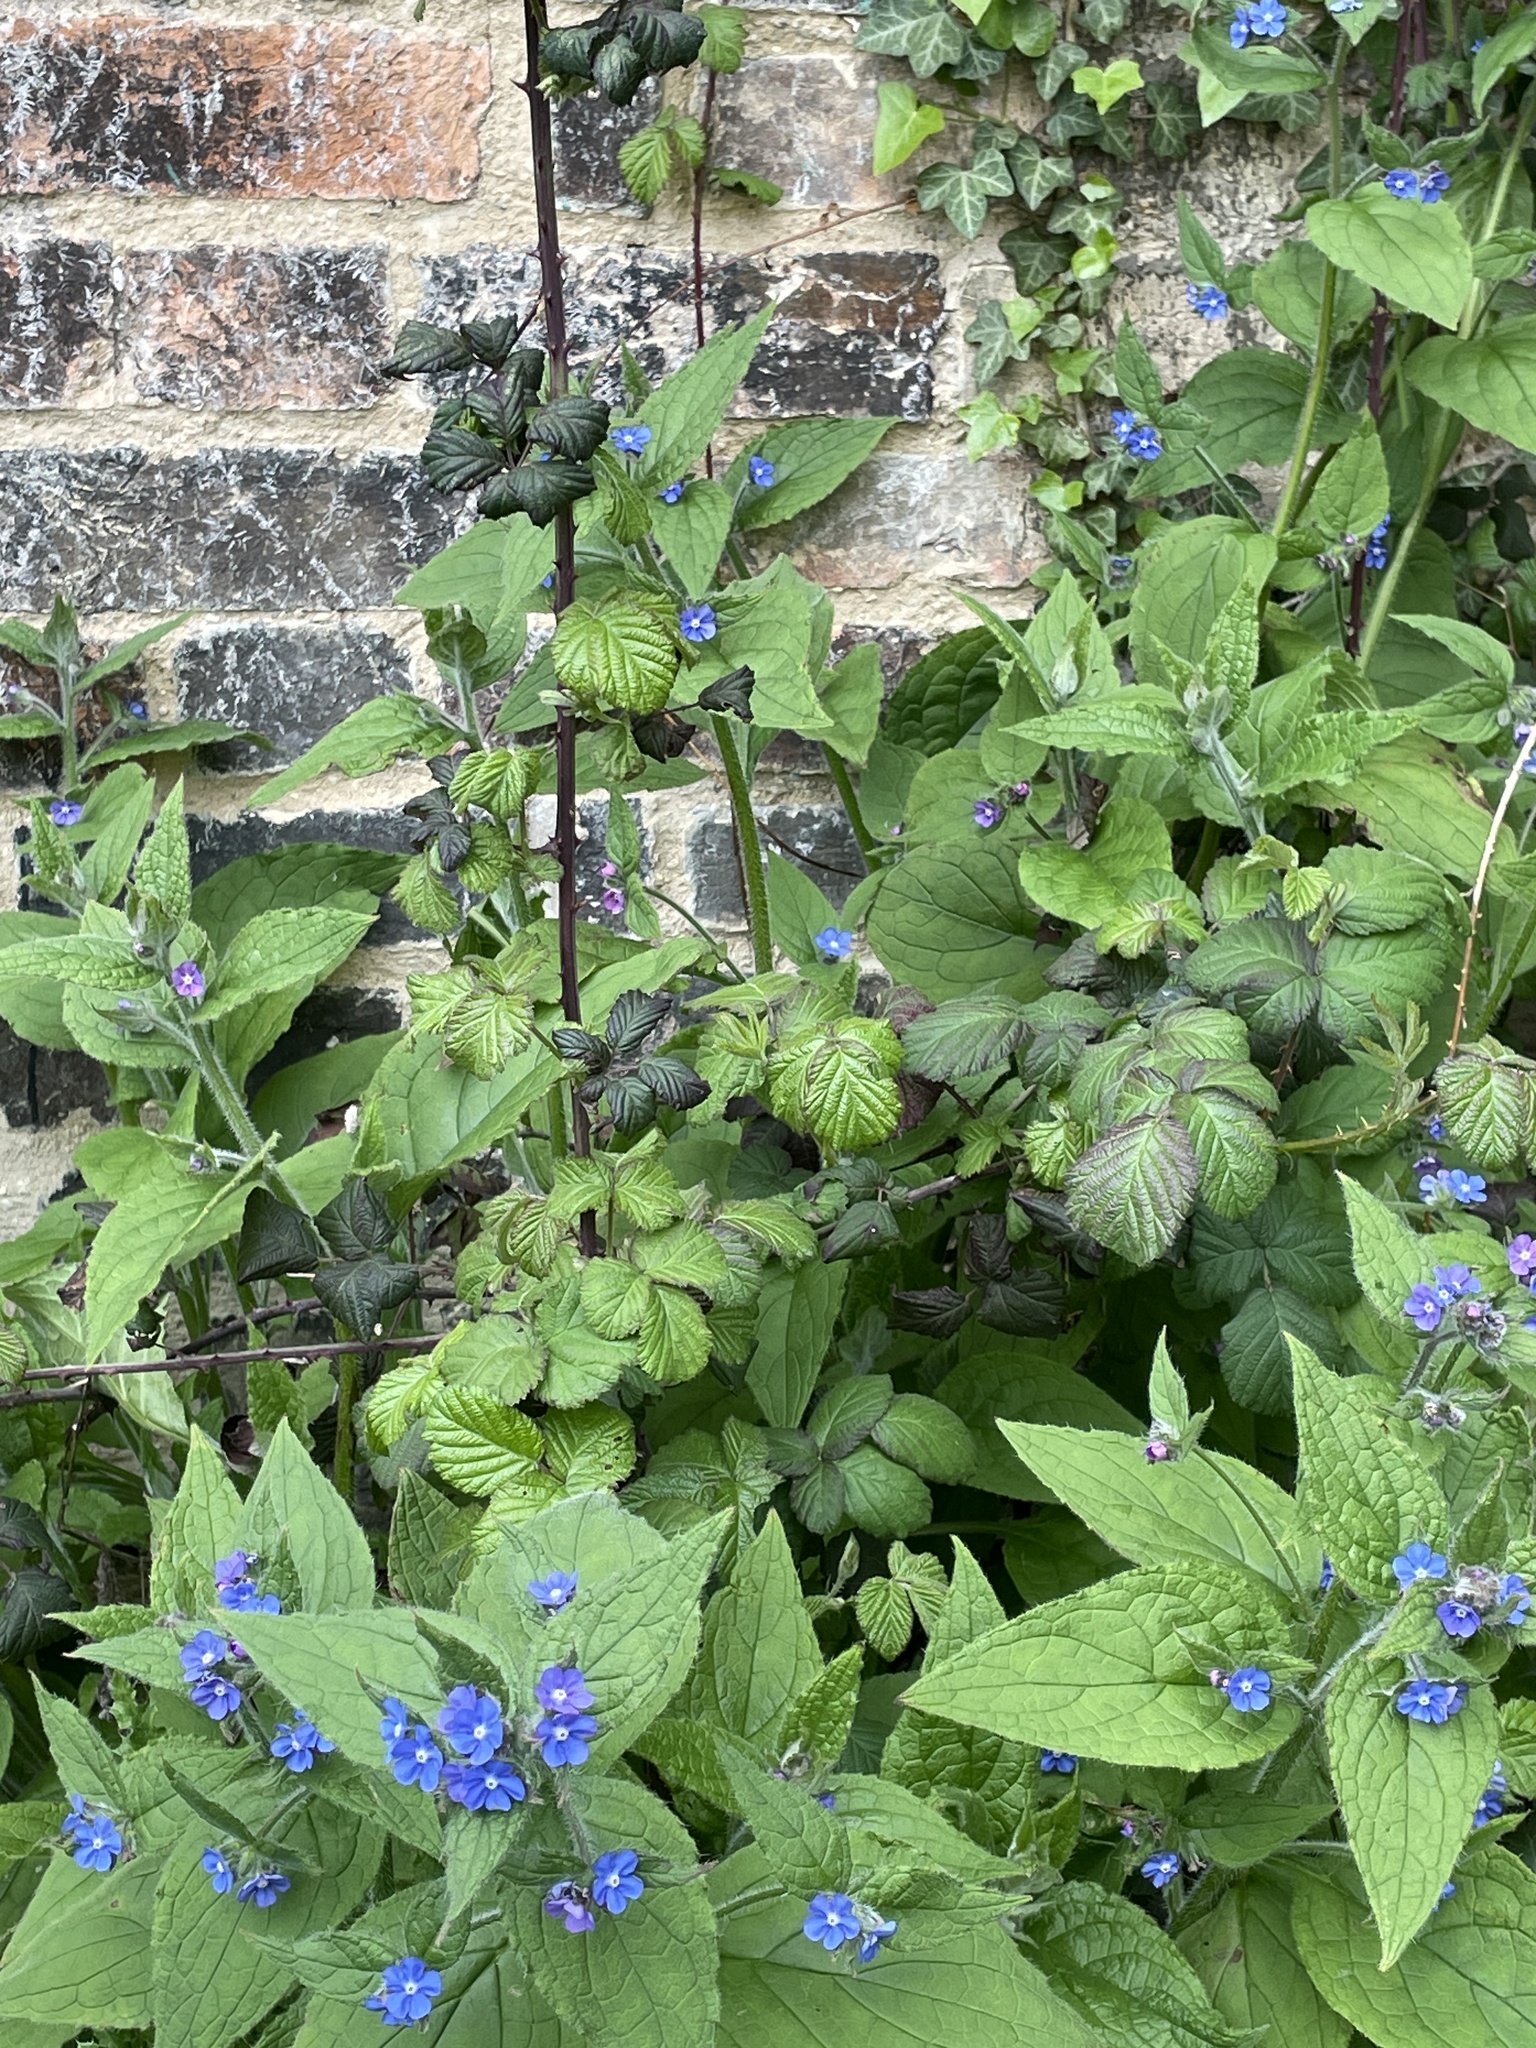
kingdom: Plantae
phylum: Tracheophyta
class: Magnoliopsida
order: Boraginales
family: Boraginaceae
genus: Pentaglottis
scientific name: Pentaglottis sempervirens
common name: Green alkanet
